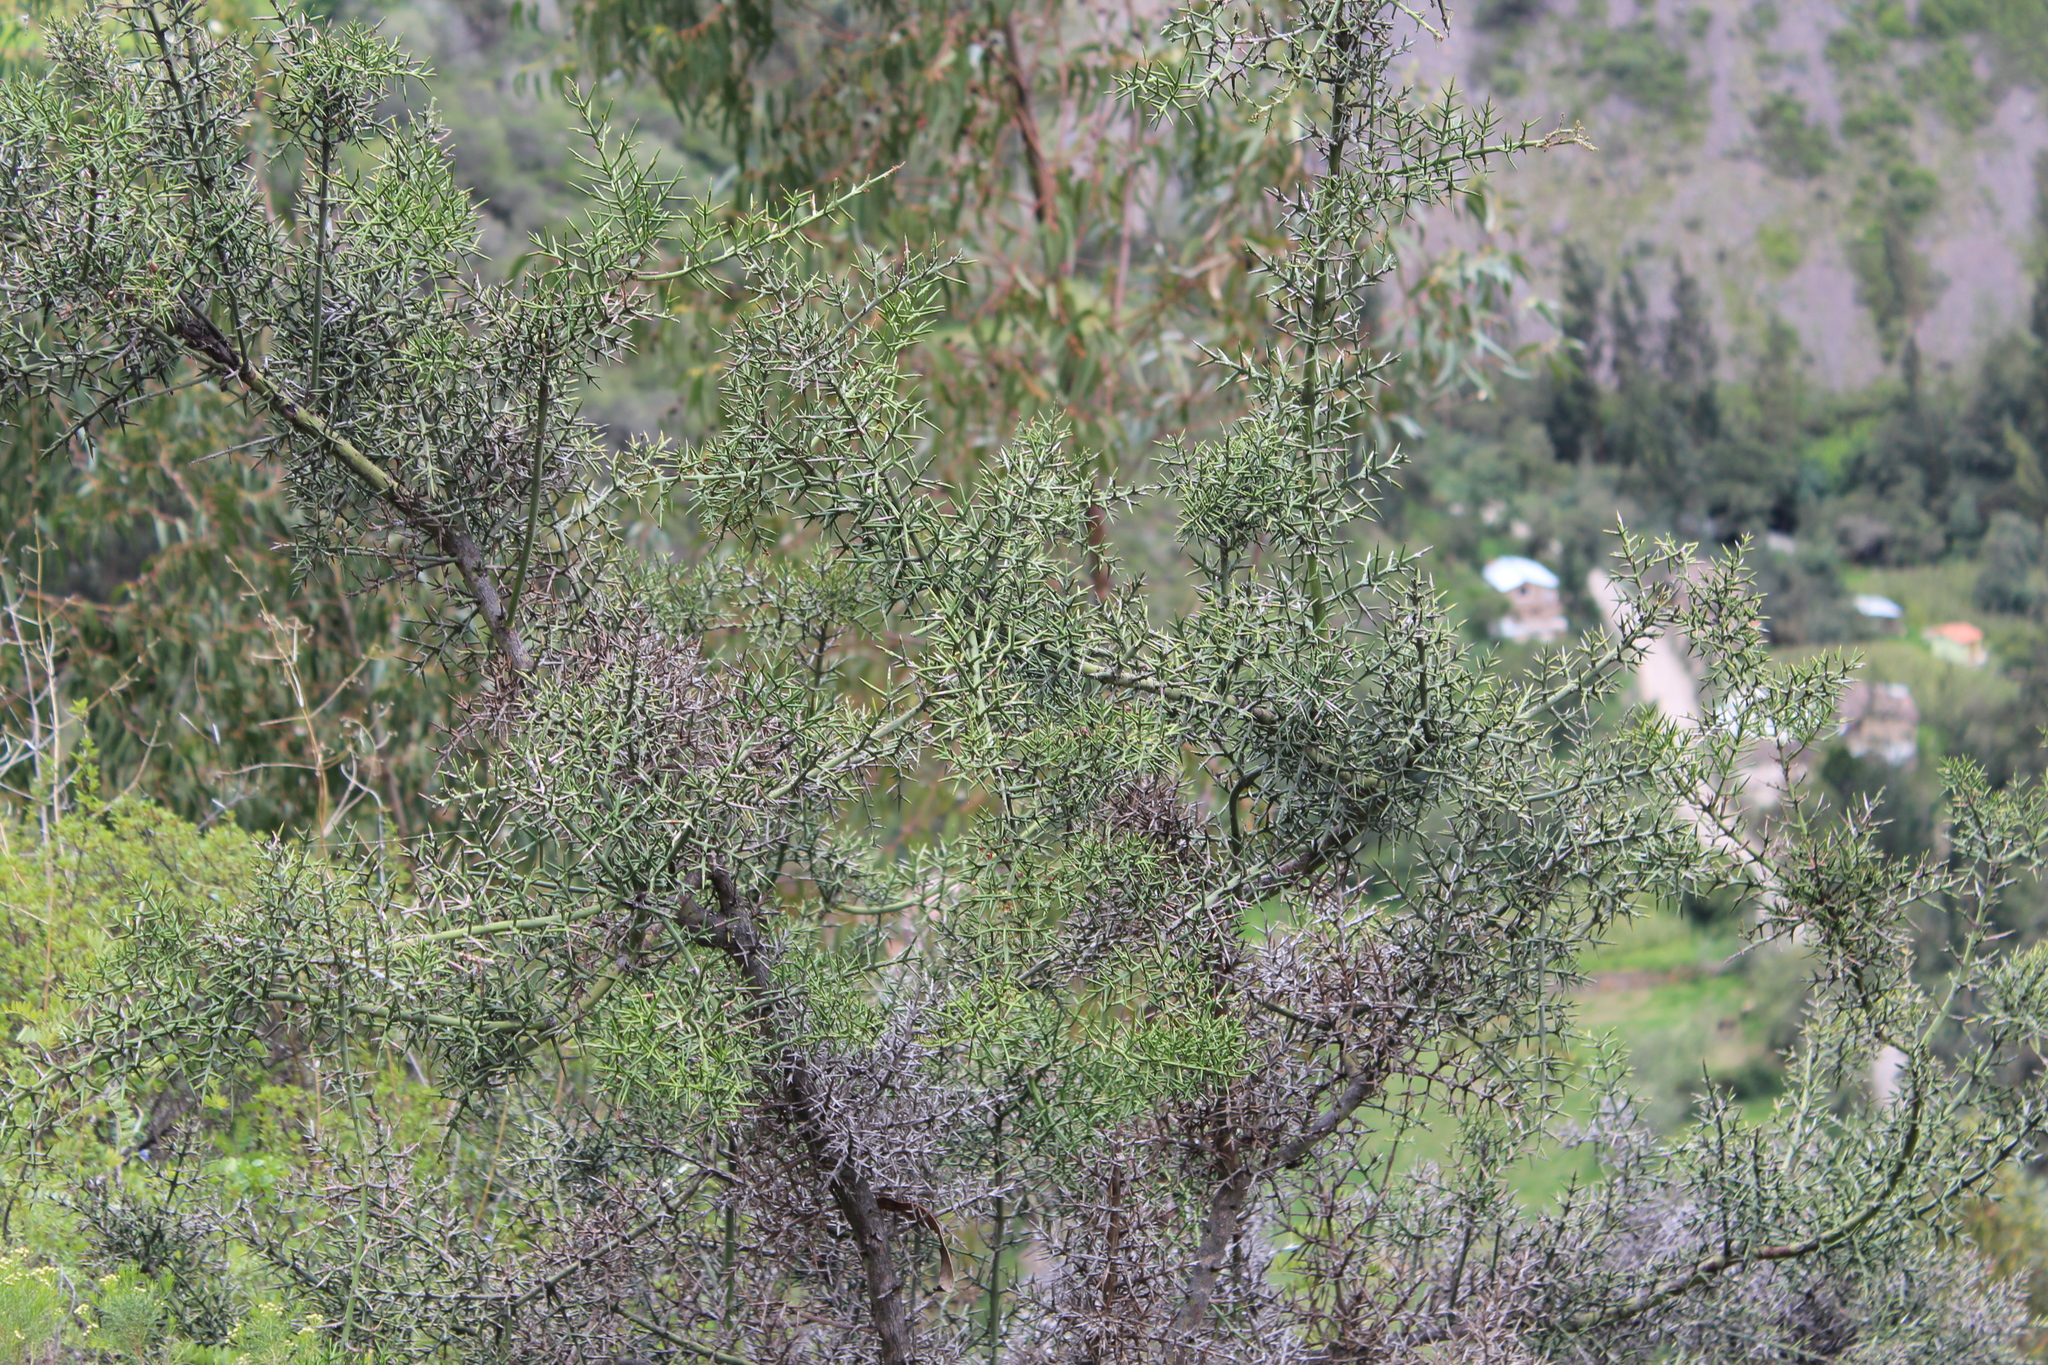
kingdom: Plantae
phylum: Tracheophyta
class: Magnoliopsida
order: Rosales
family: Rhamnaceae
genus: Colletia
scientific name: Colletia spinosissima
